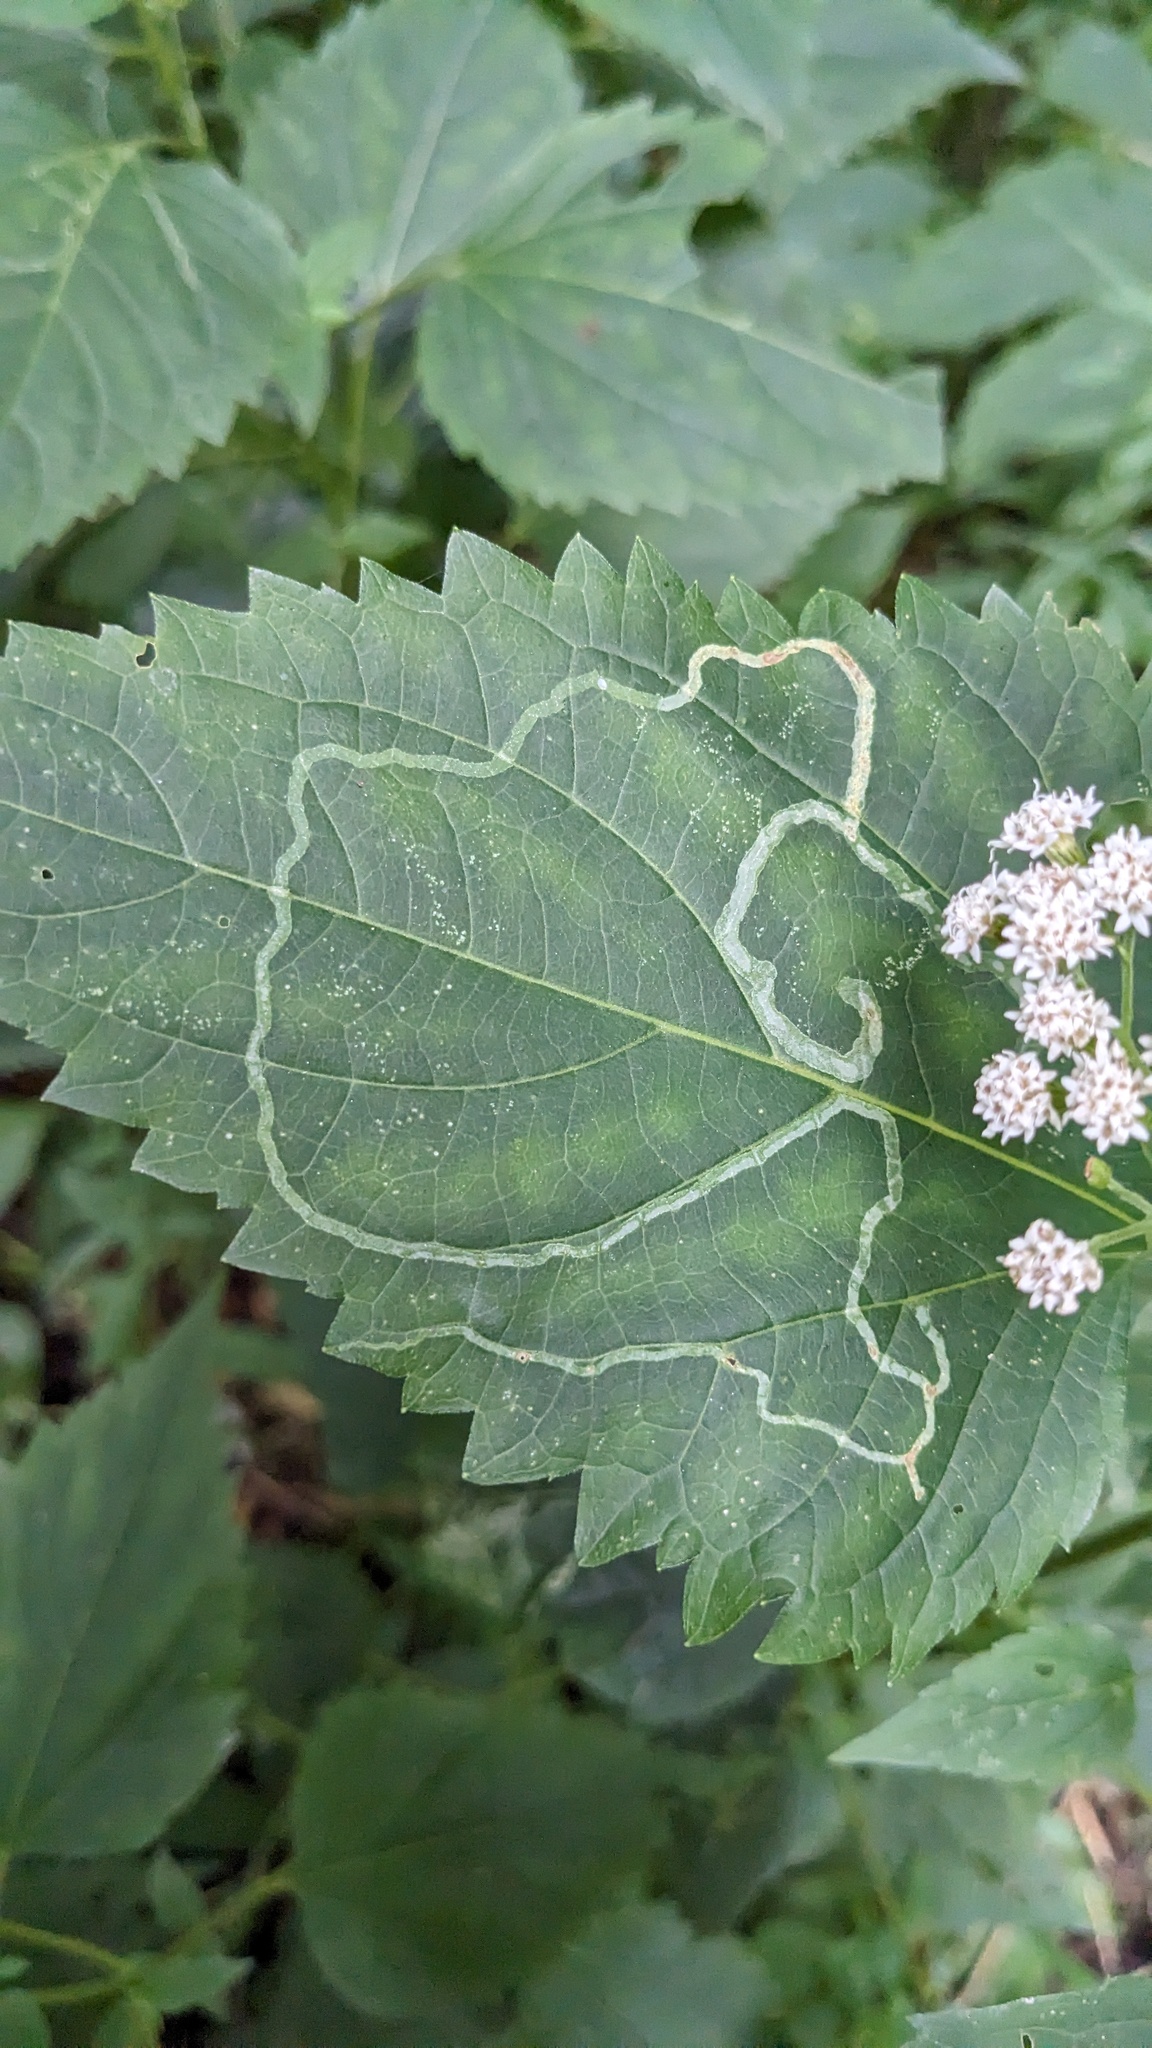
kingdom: Animalia
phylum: Arthropoda
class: Insecta
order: Diptera
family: Agromyzidae
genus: Liriomyza
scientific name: Liriomyza
